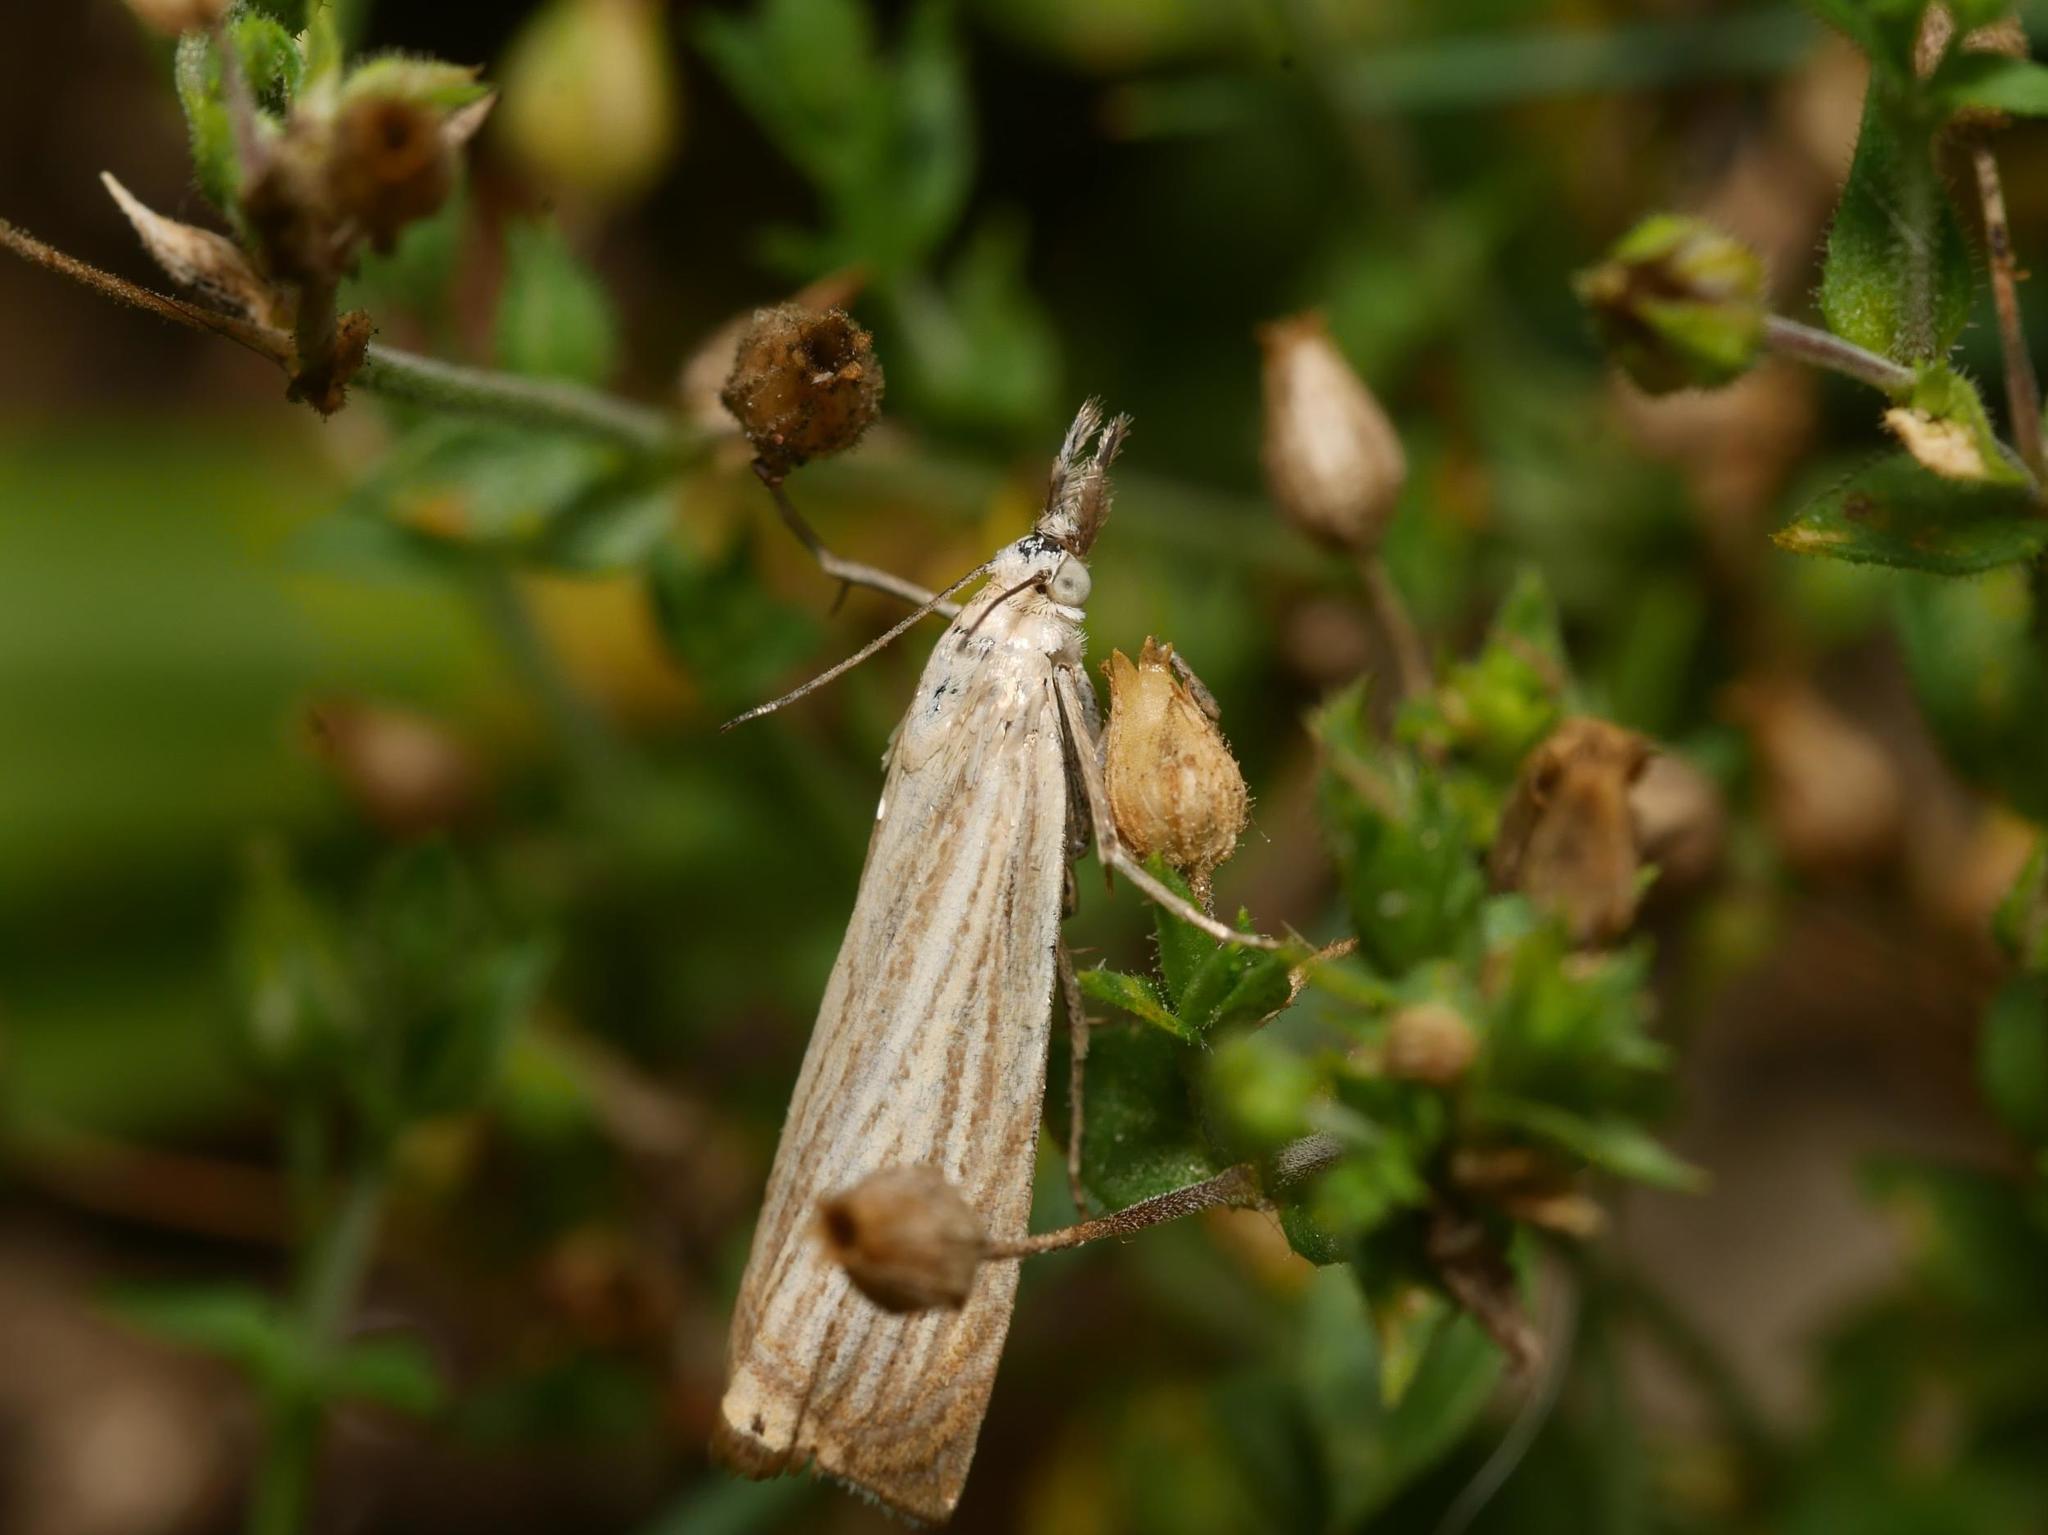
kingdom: Animalia
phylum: Arthropoda
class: Insecta
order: Lepidoptera
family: Crambidae
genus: Chrysoteuchia
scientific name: Chrysoteuchia culmella
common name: Garden grass-veneer
